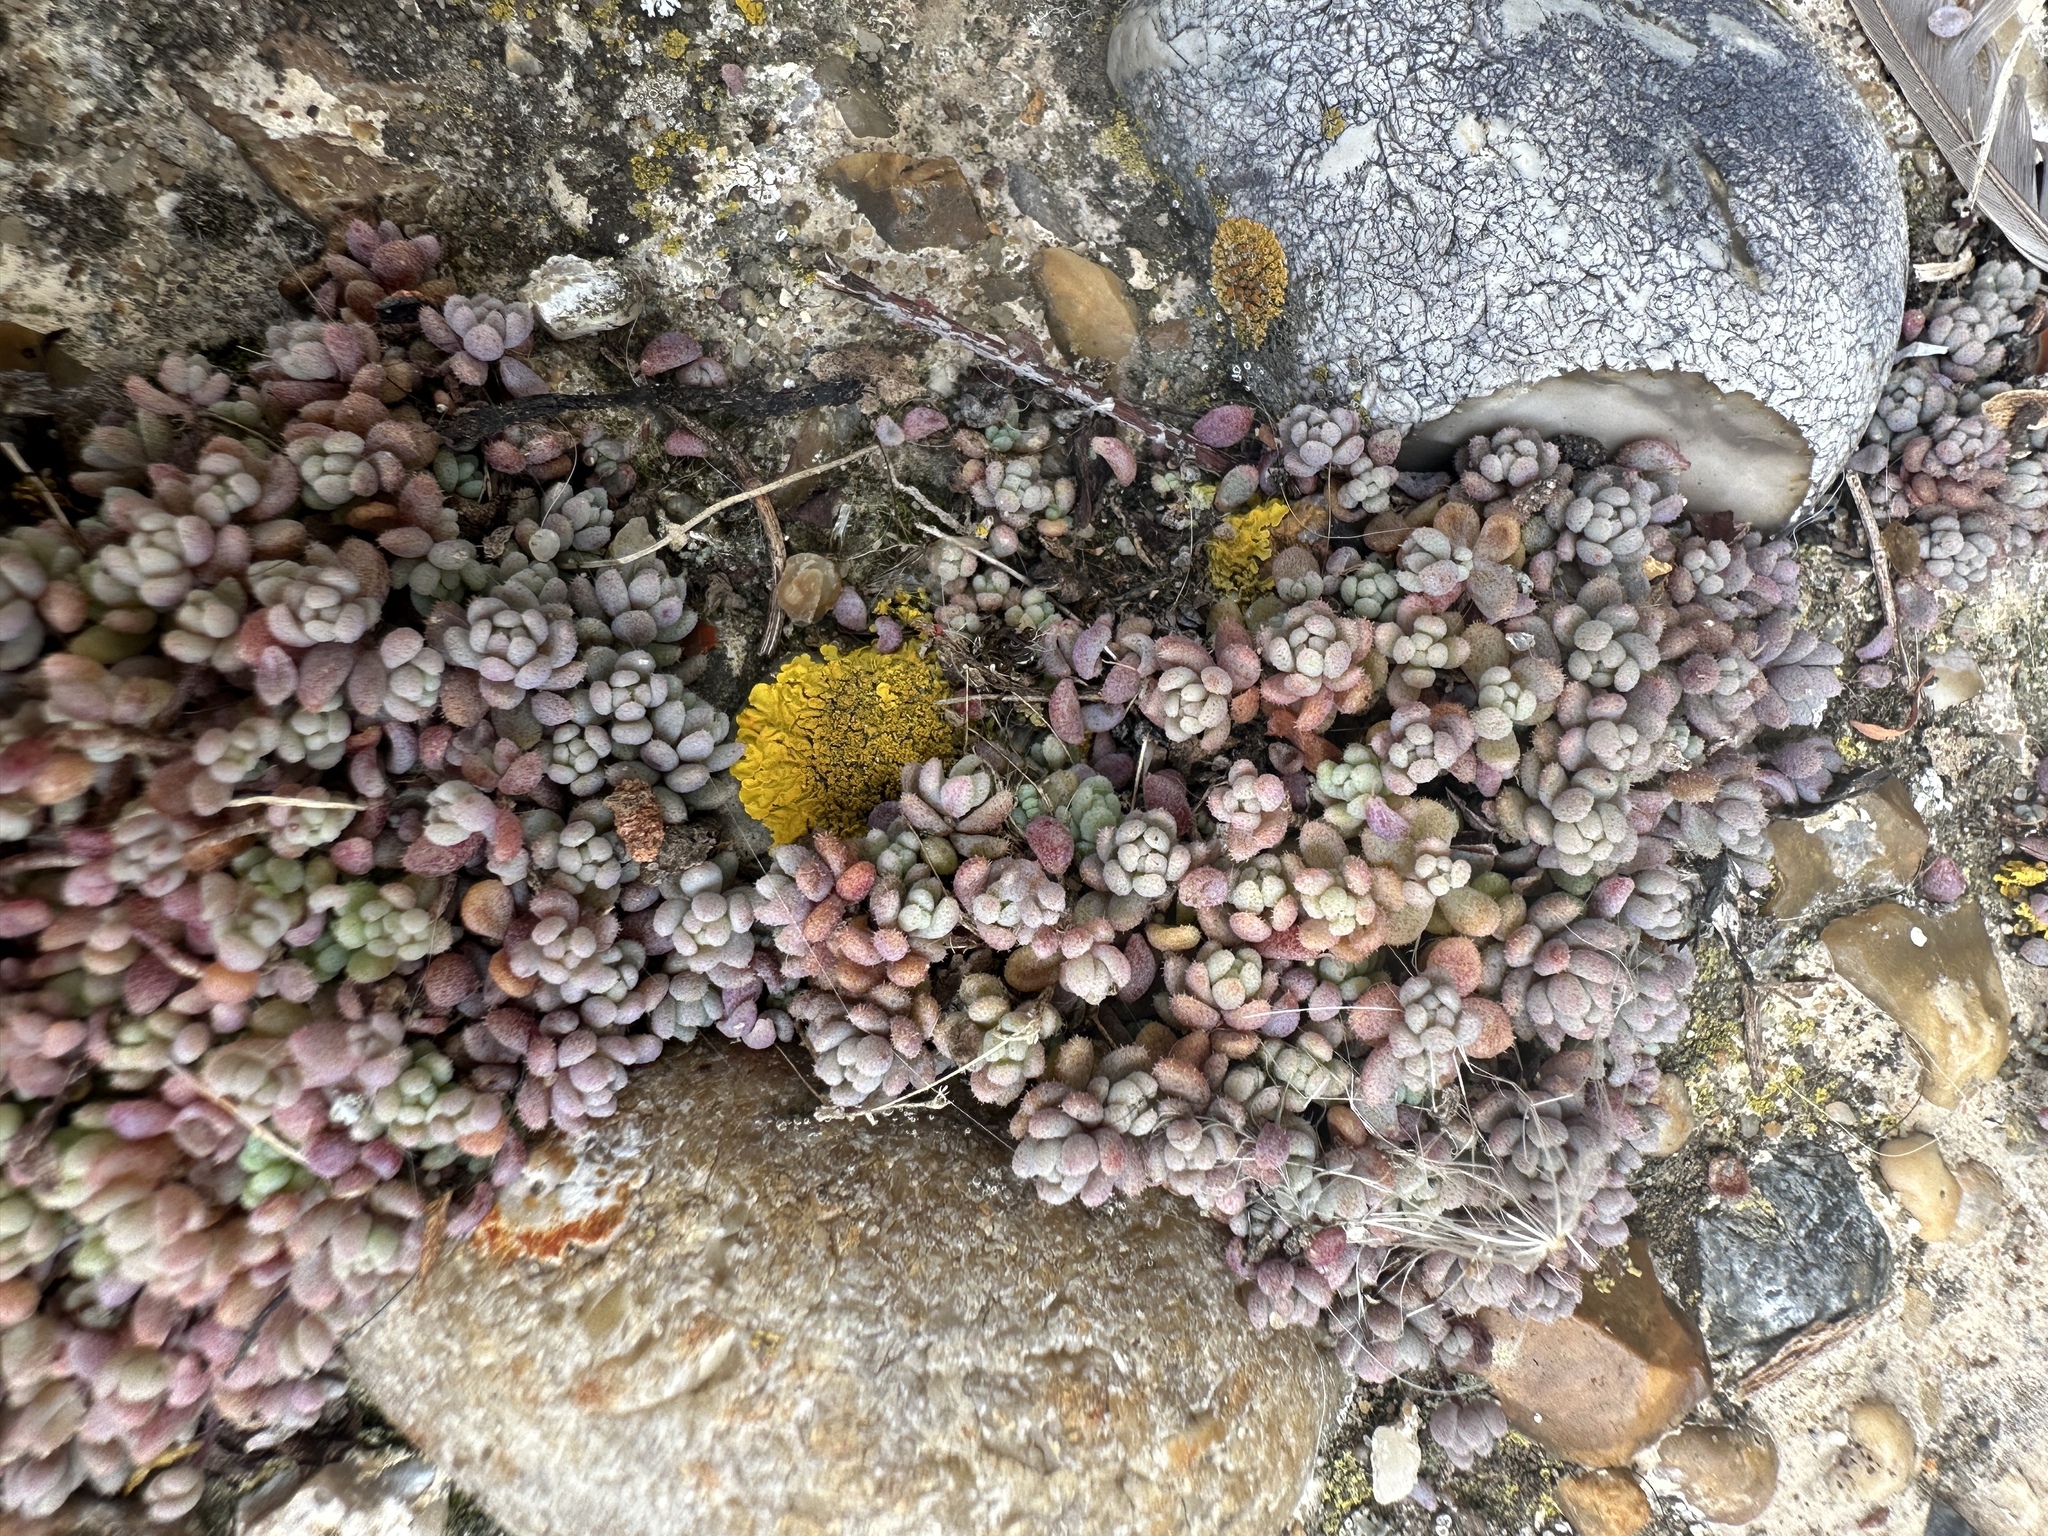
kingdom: Plantae
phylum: Tracheophyta
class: Magnoliopsida
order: Saxifragales
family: Crassulaceae
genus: Sedum
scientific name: Sedum dasyphyllum
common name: Thick-leaf stonecrop
